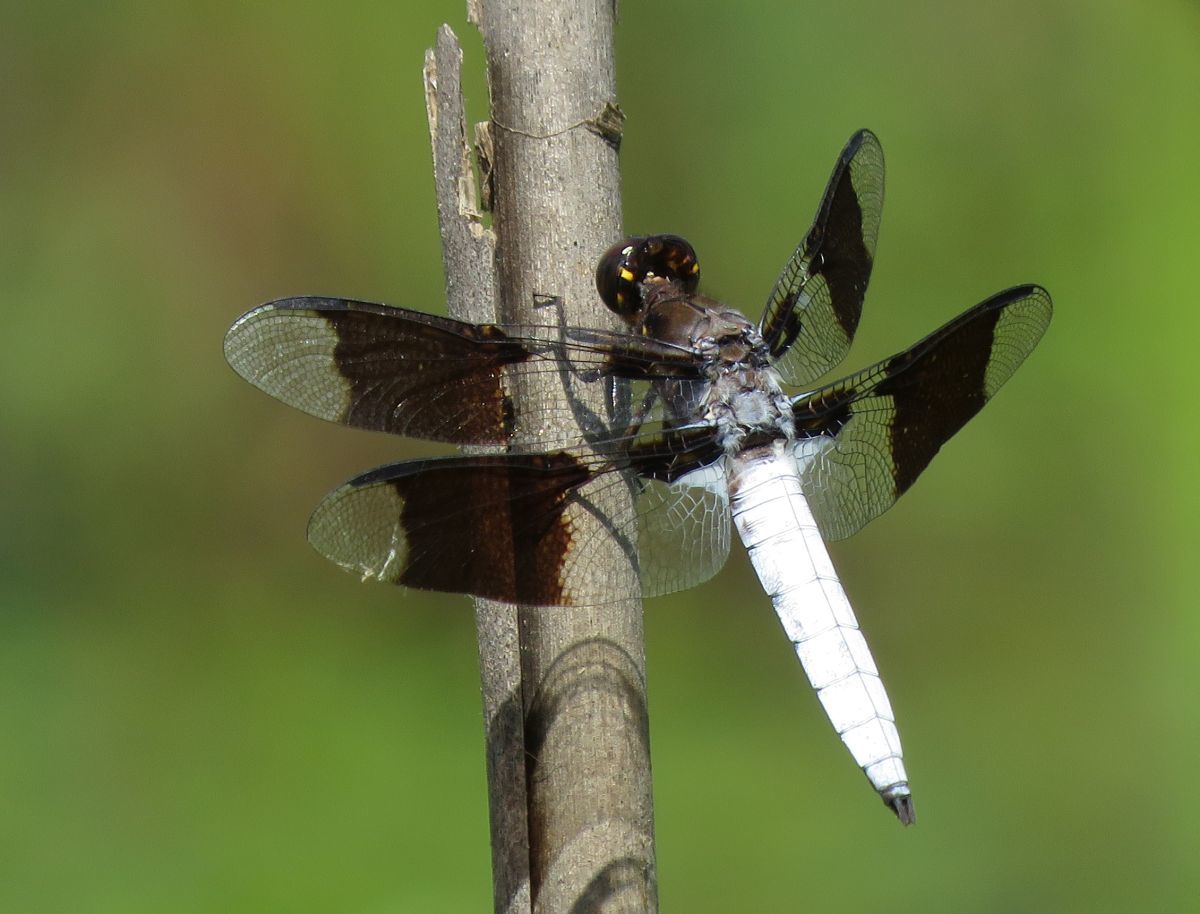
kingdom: Animalia
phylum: Arthropoda
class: Insecta
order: Odonata
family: Libellulidae
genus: Plathemis
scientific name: Plathemis lydia
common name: Common whitetail
